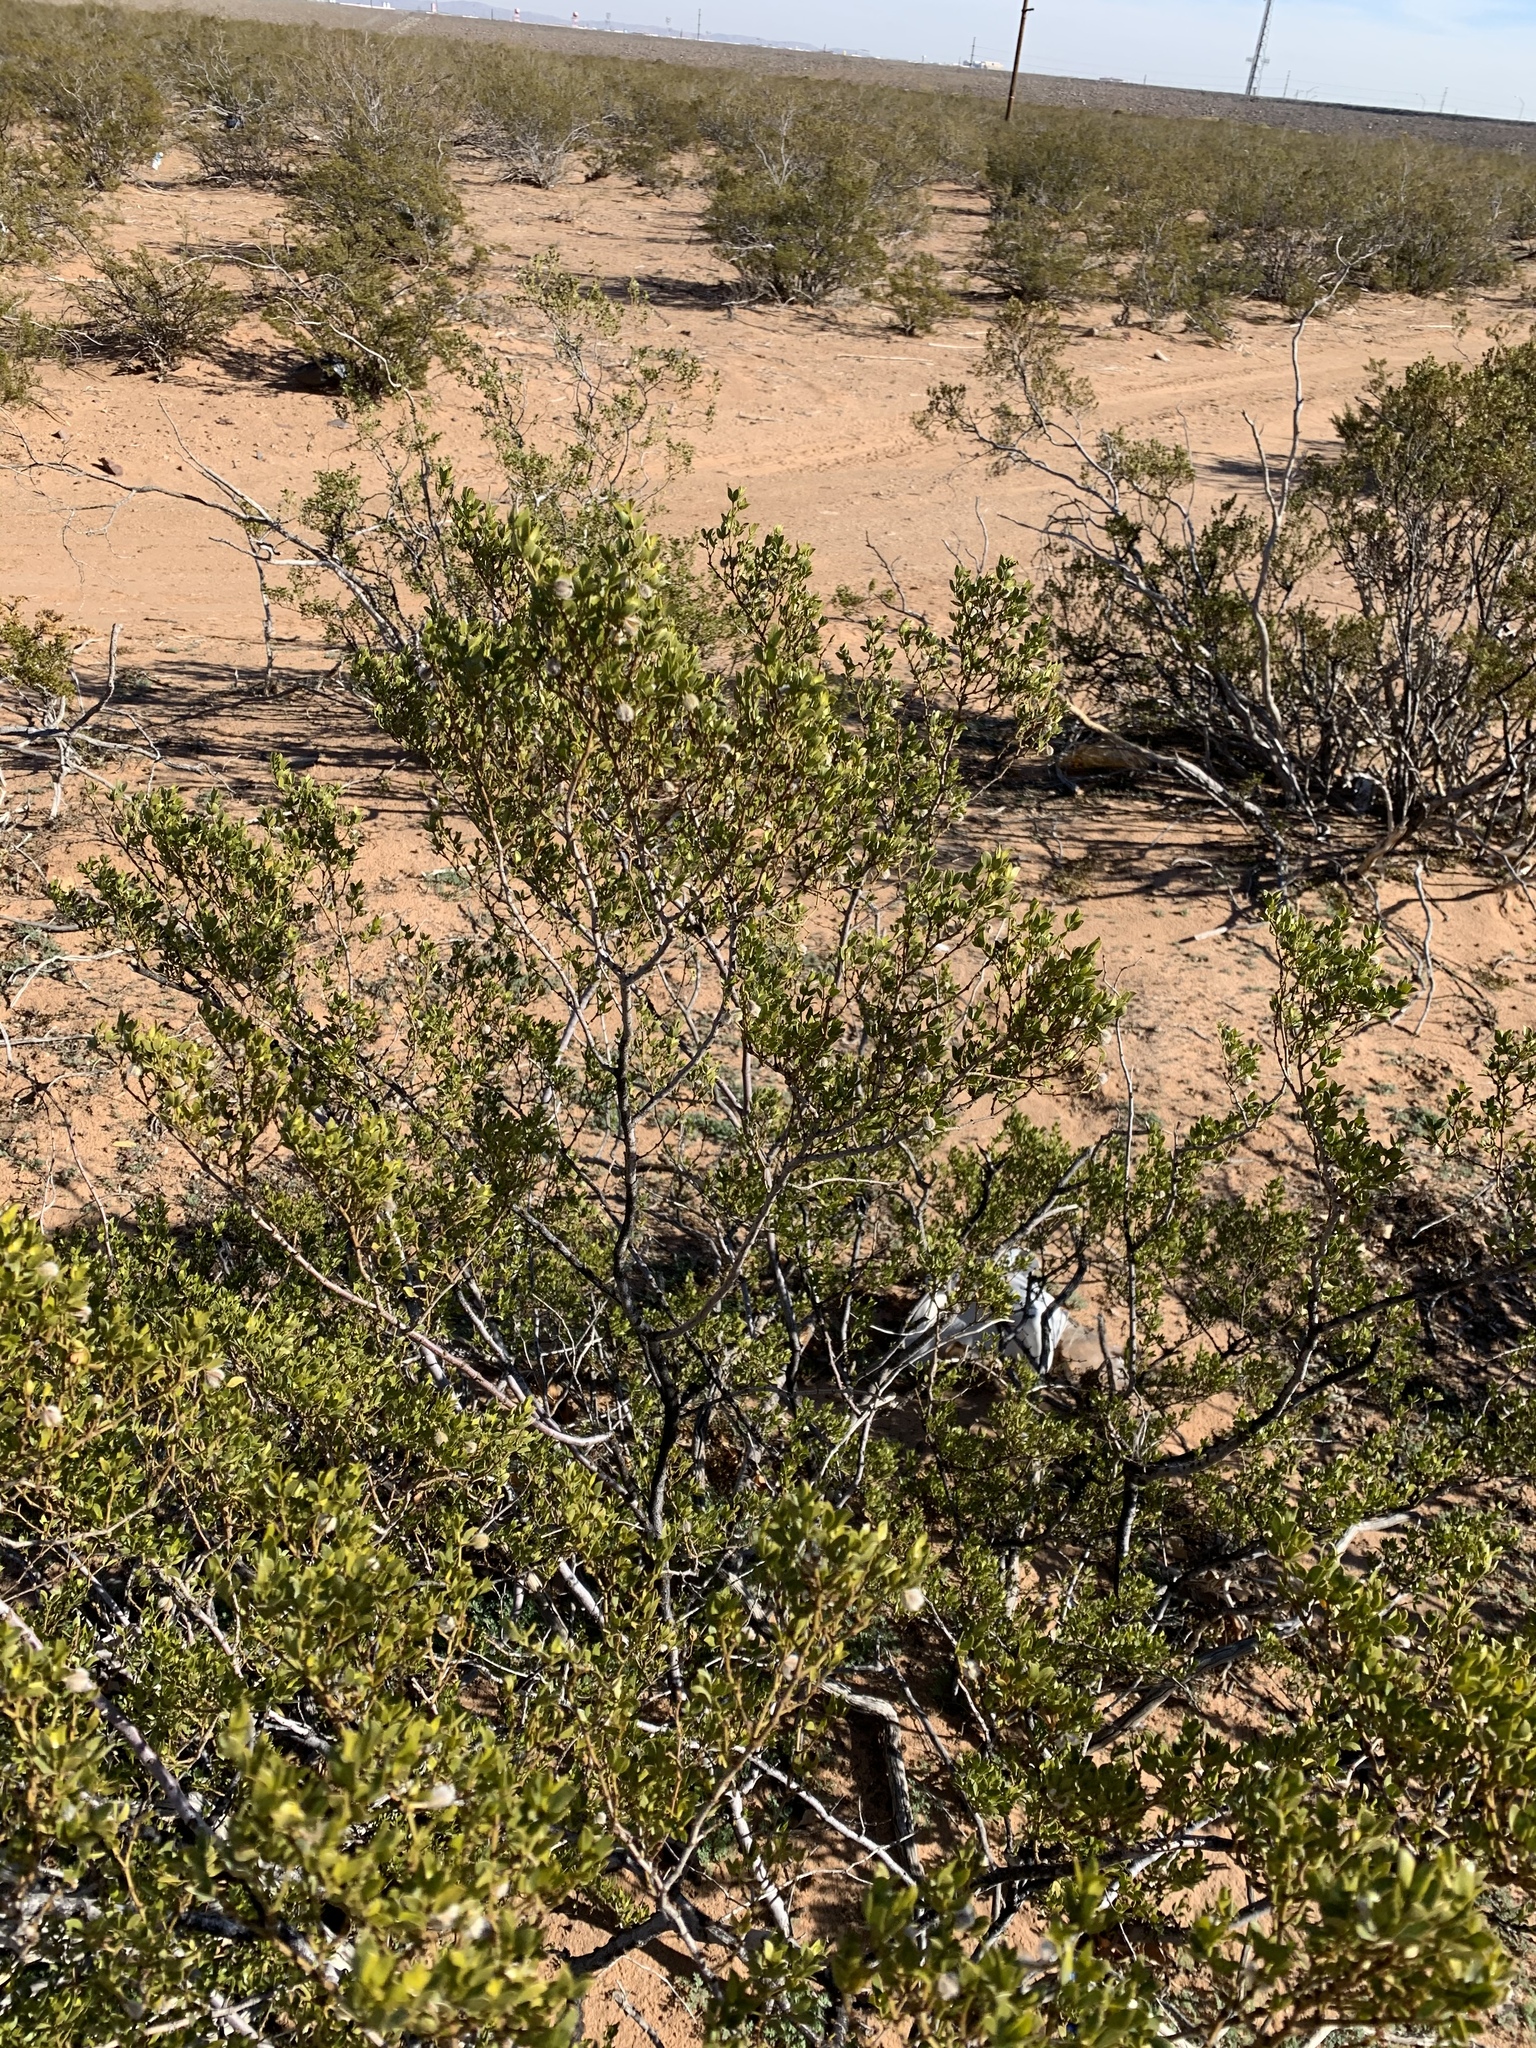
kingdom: Plantae
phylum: Tracheophyta
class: Magnoliopsida
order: Zygophyllales
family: Zygophyllaceae
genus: Larrea
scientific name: Larrea tridentata
